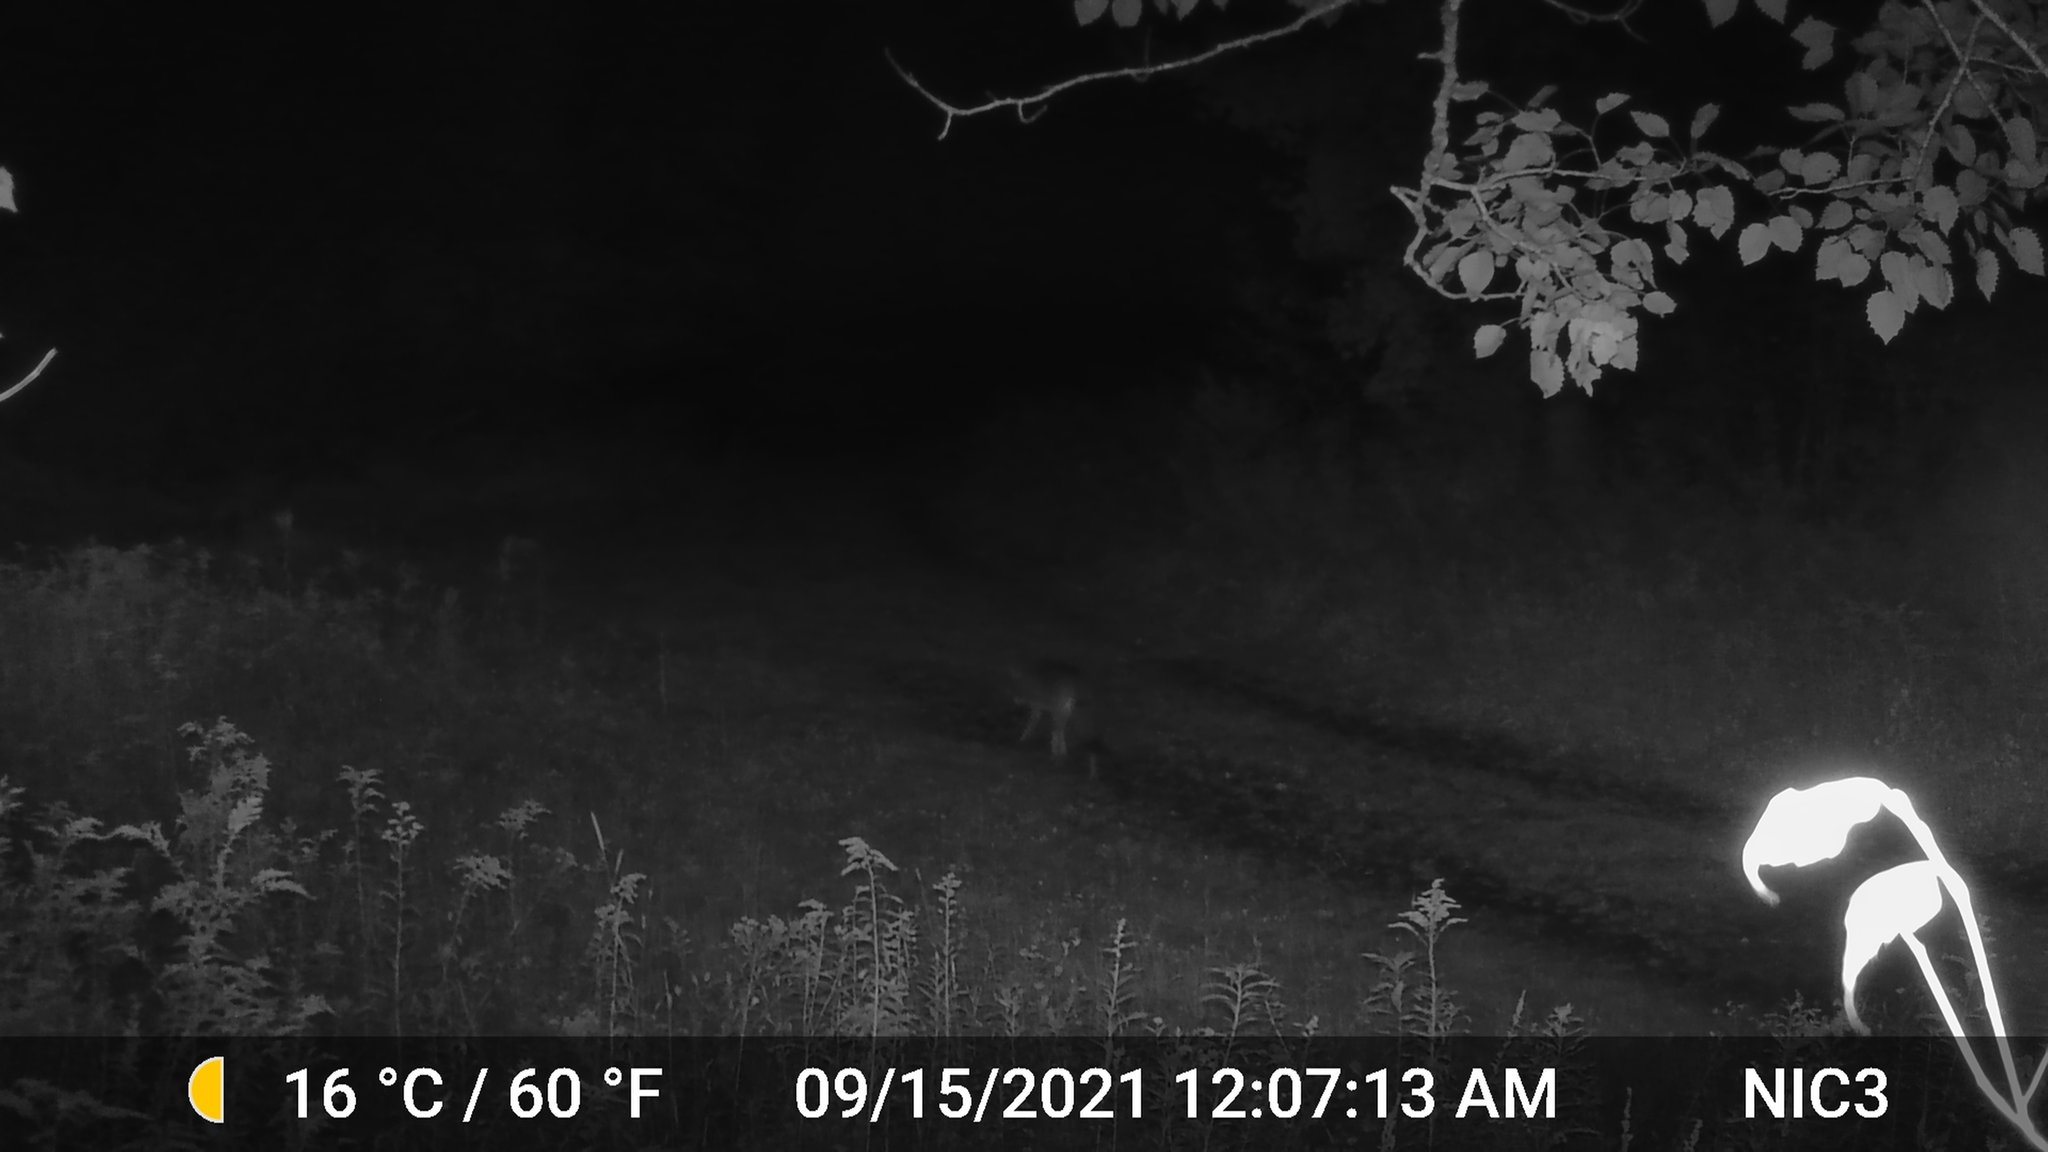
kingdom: Animalia
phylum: Chordata
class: Mammalia
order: Carnivora
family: Canidae
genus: Canis
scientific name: Canis latrans
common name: Coyote
